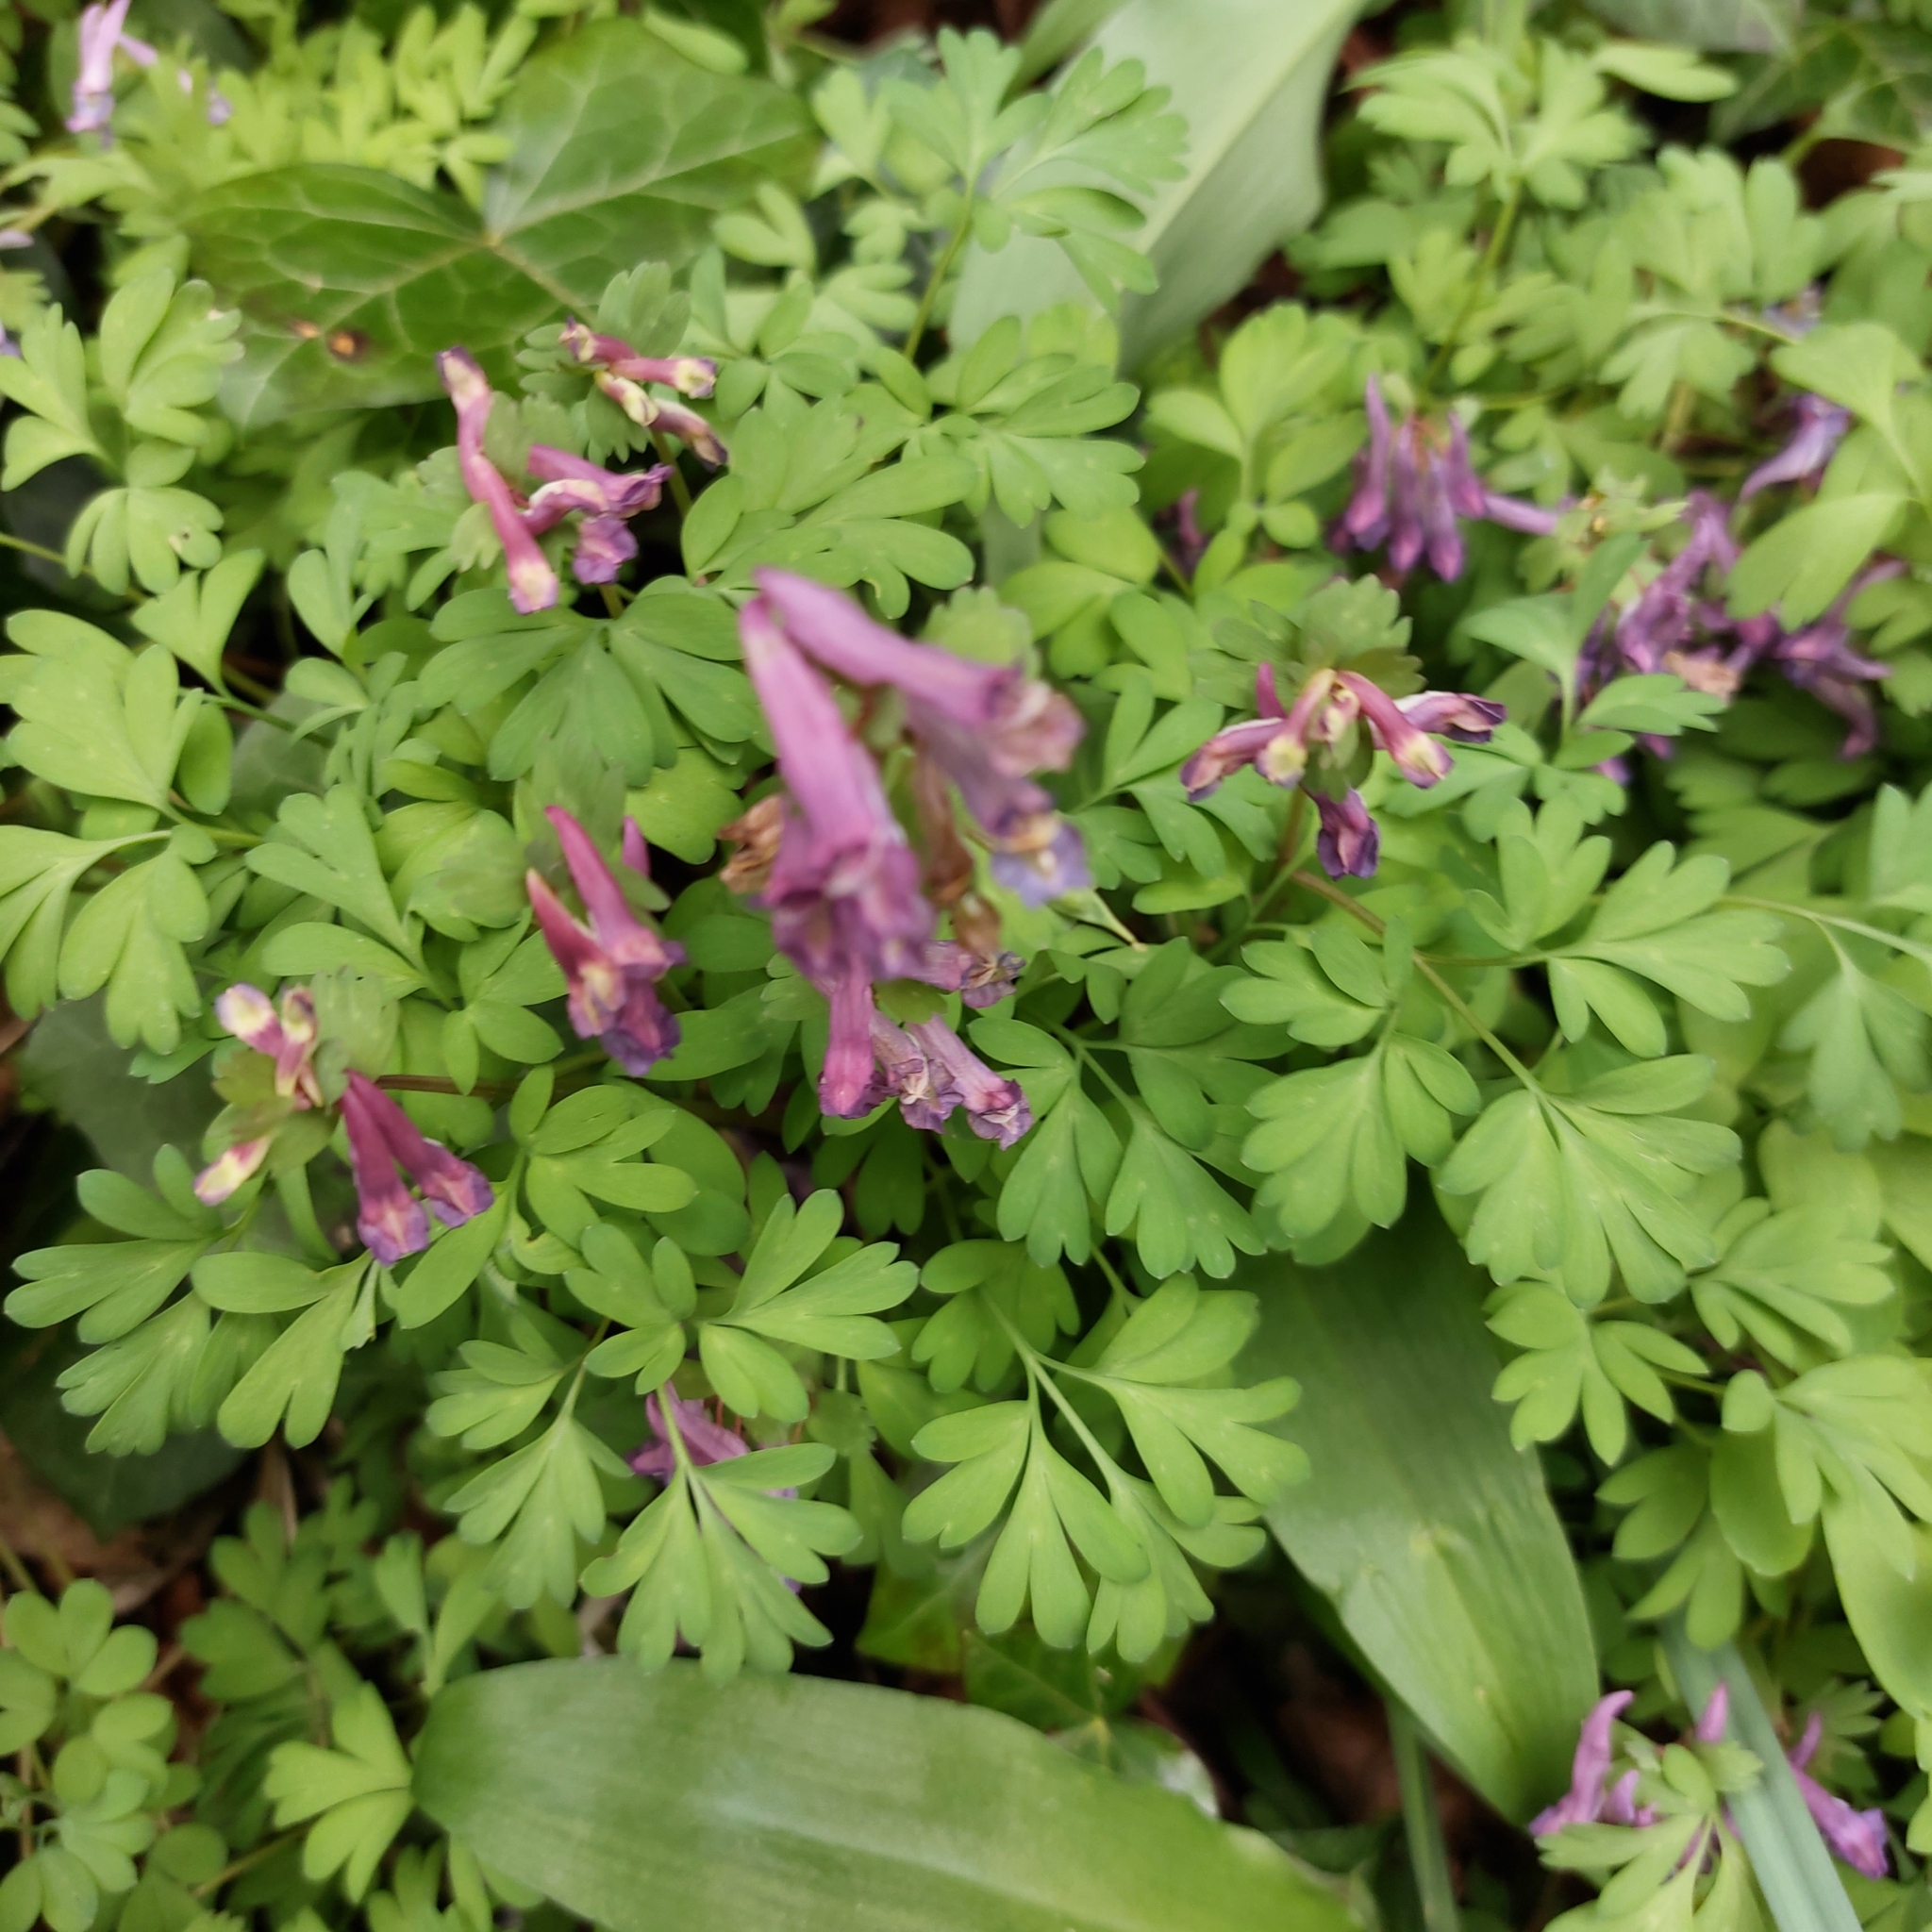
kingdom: Plantae
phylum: Tracheophyta
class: Magnoliopsida
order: Ranunculales
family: Papaveraceae
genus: Fumaria
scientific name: Fumaria muralis
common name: Common ramping-fumitory
